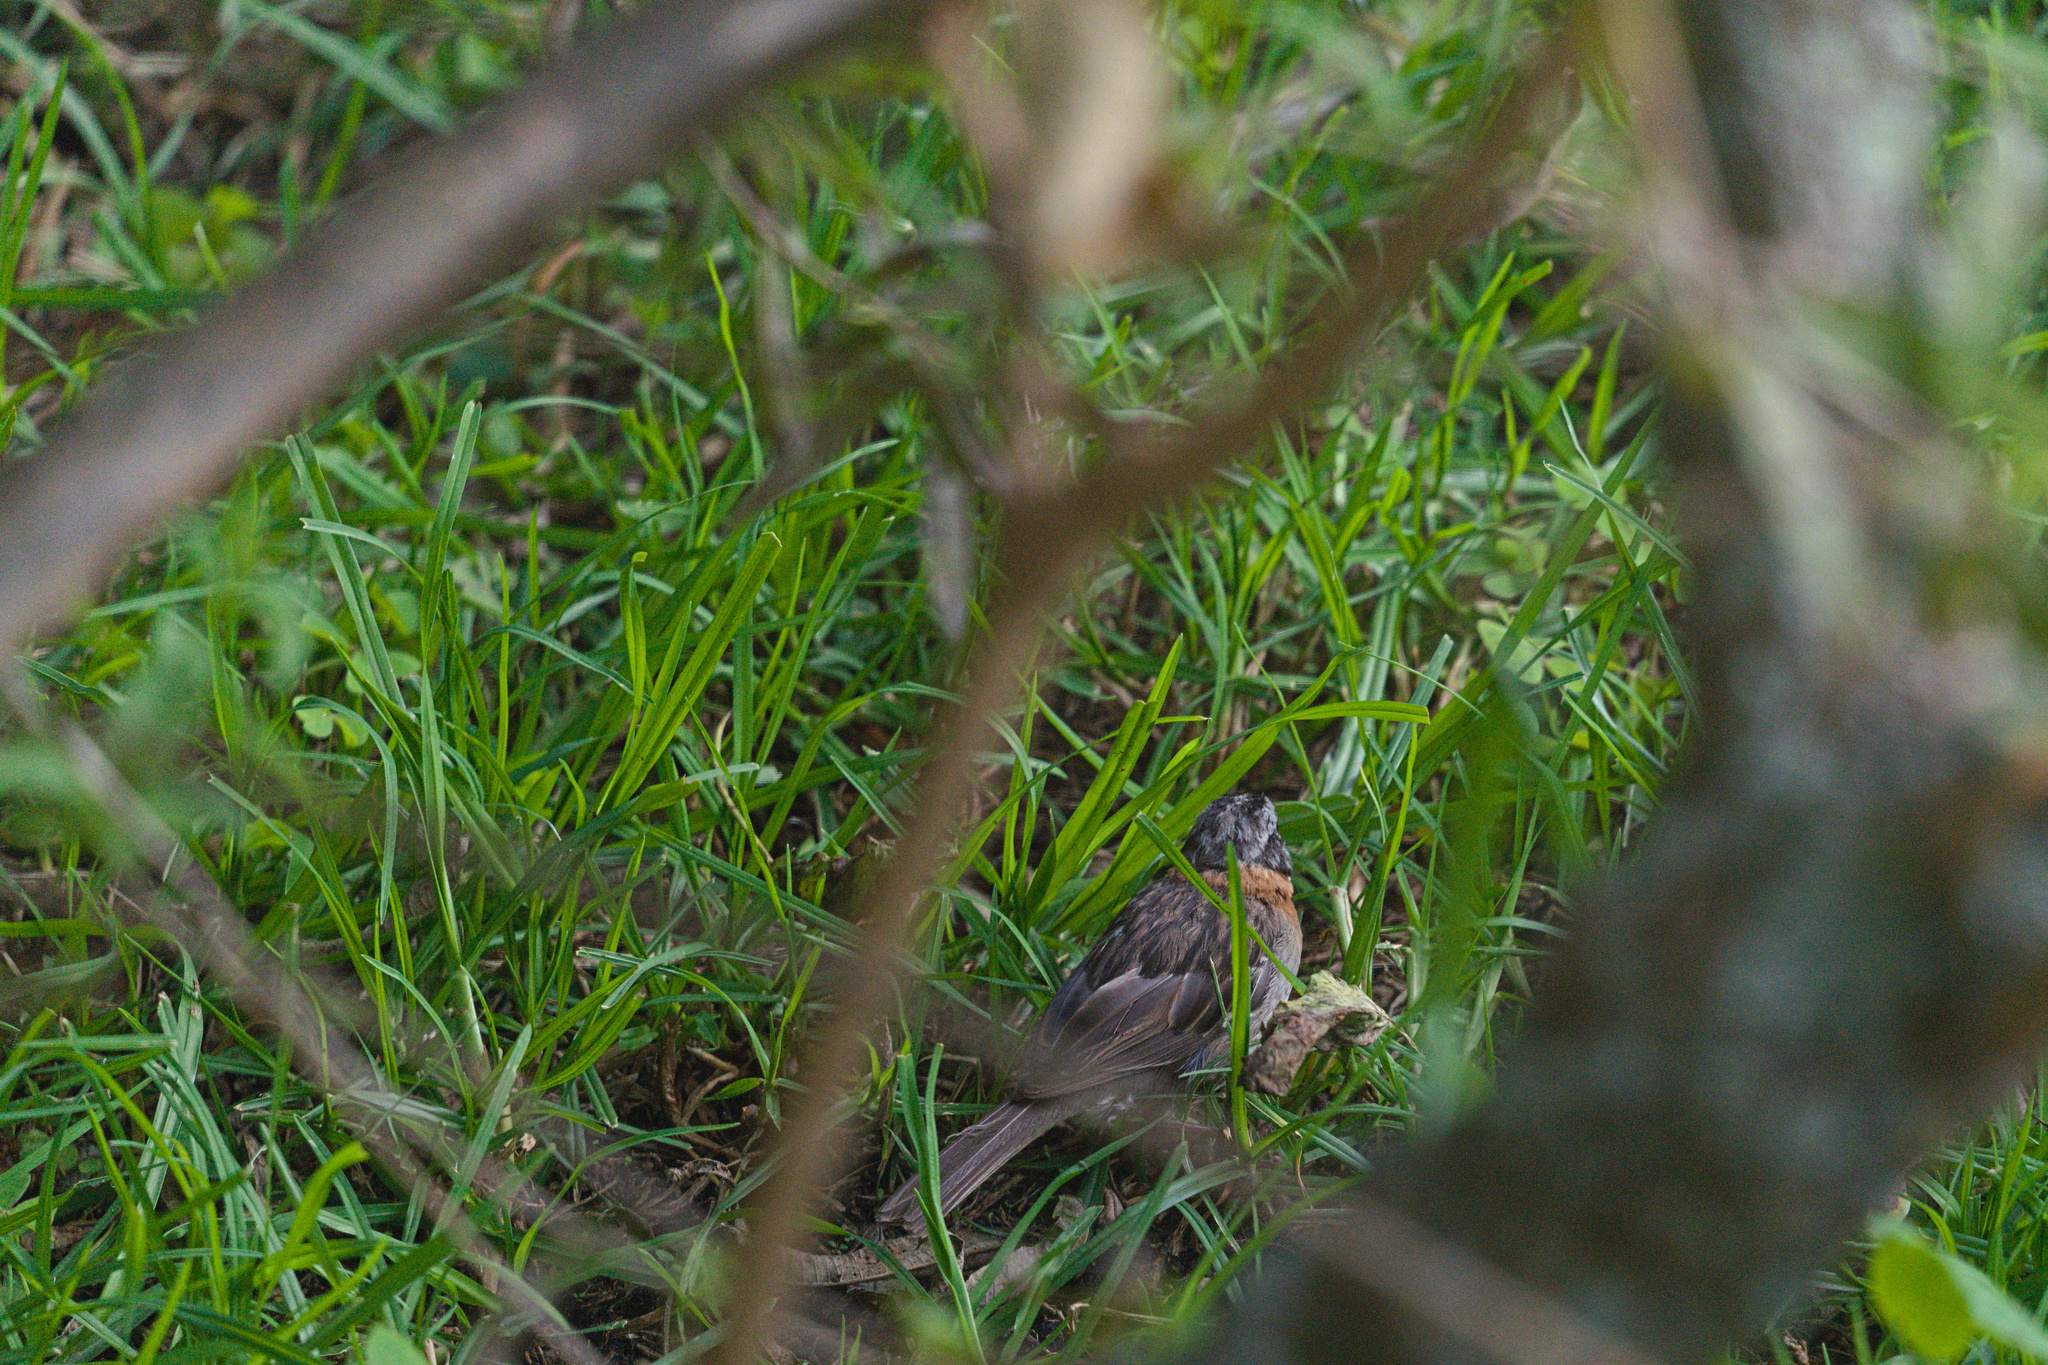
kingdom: Animalia
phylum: Chordata
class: Aves
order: Passeriformes
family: Passerellidae
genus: Zonotrichia
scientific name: Zonotrichia capensis
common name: Rufous-collared sparrow
